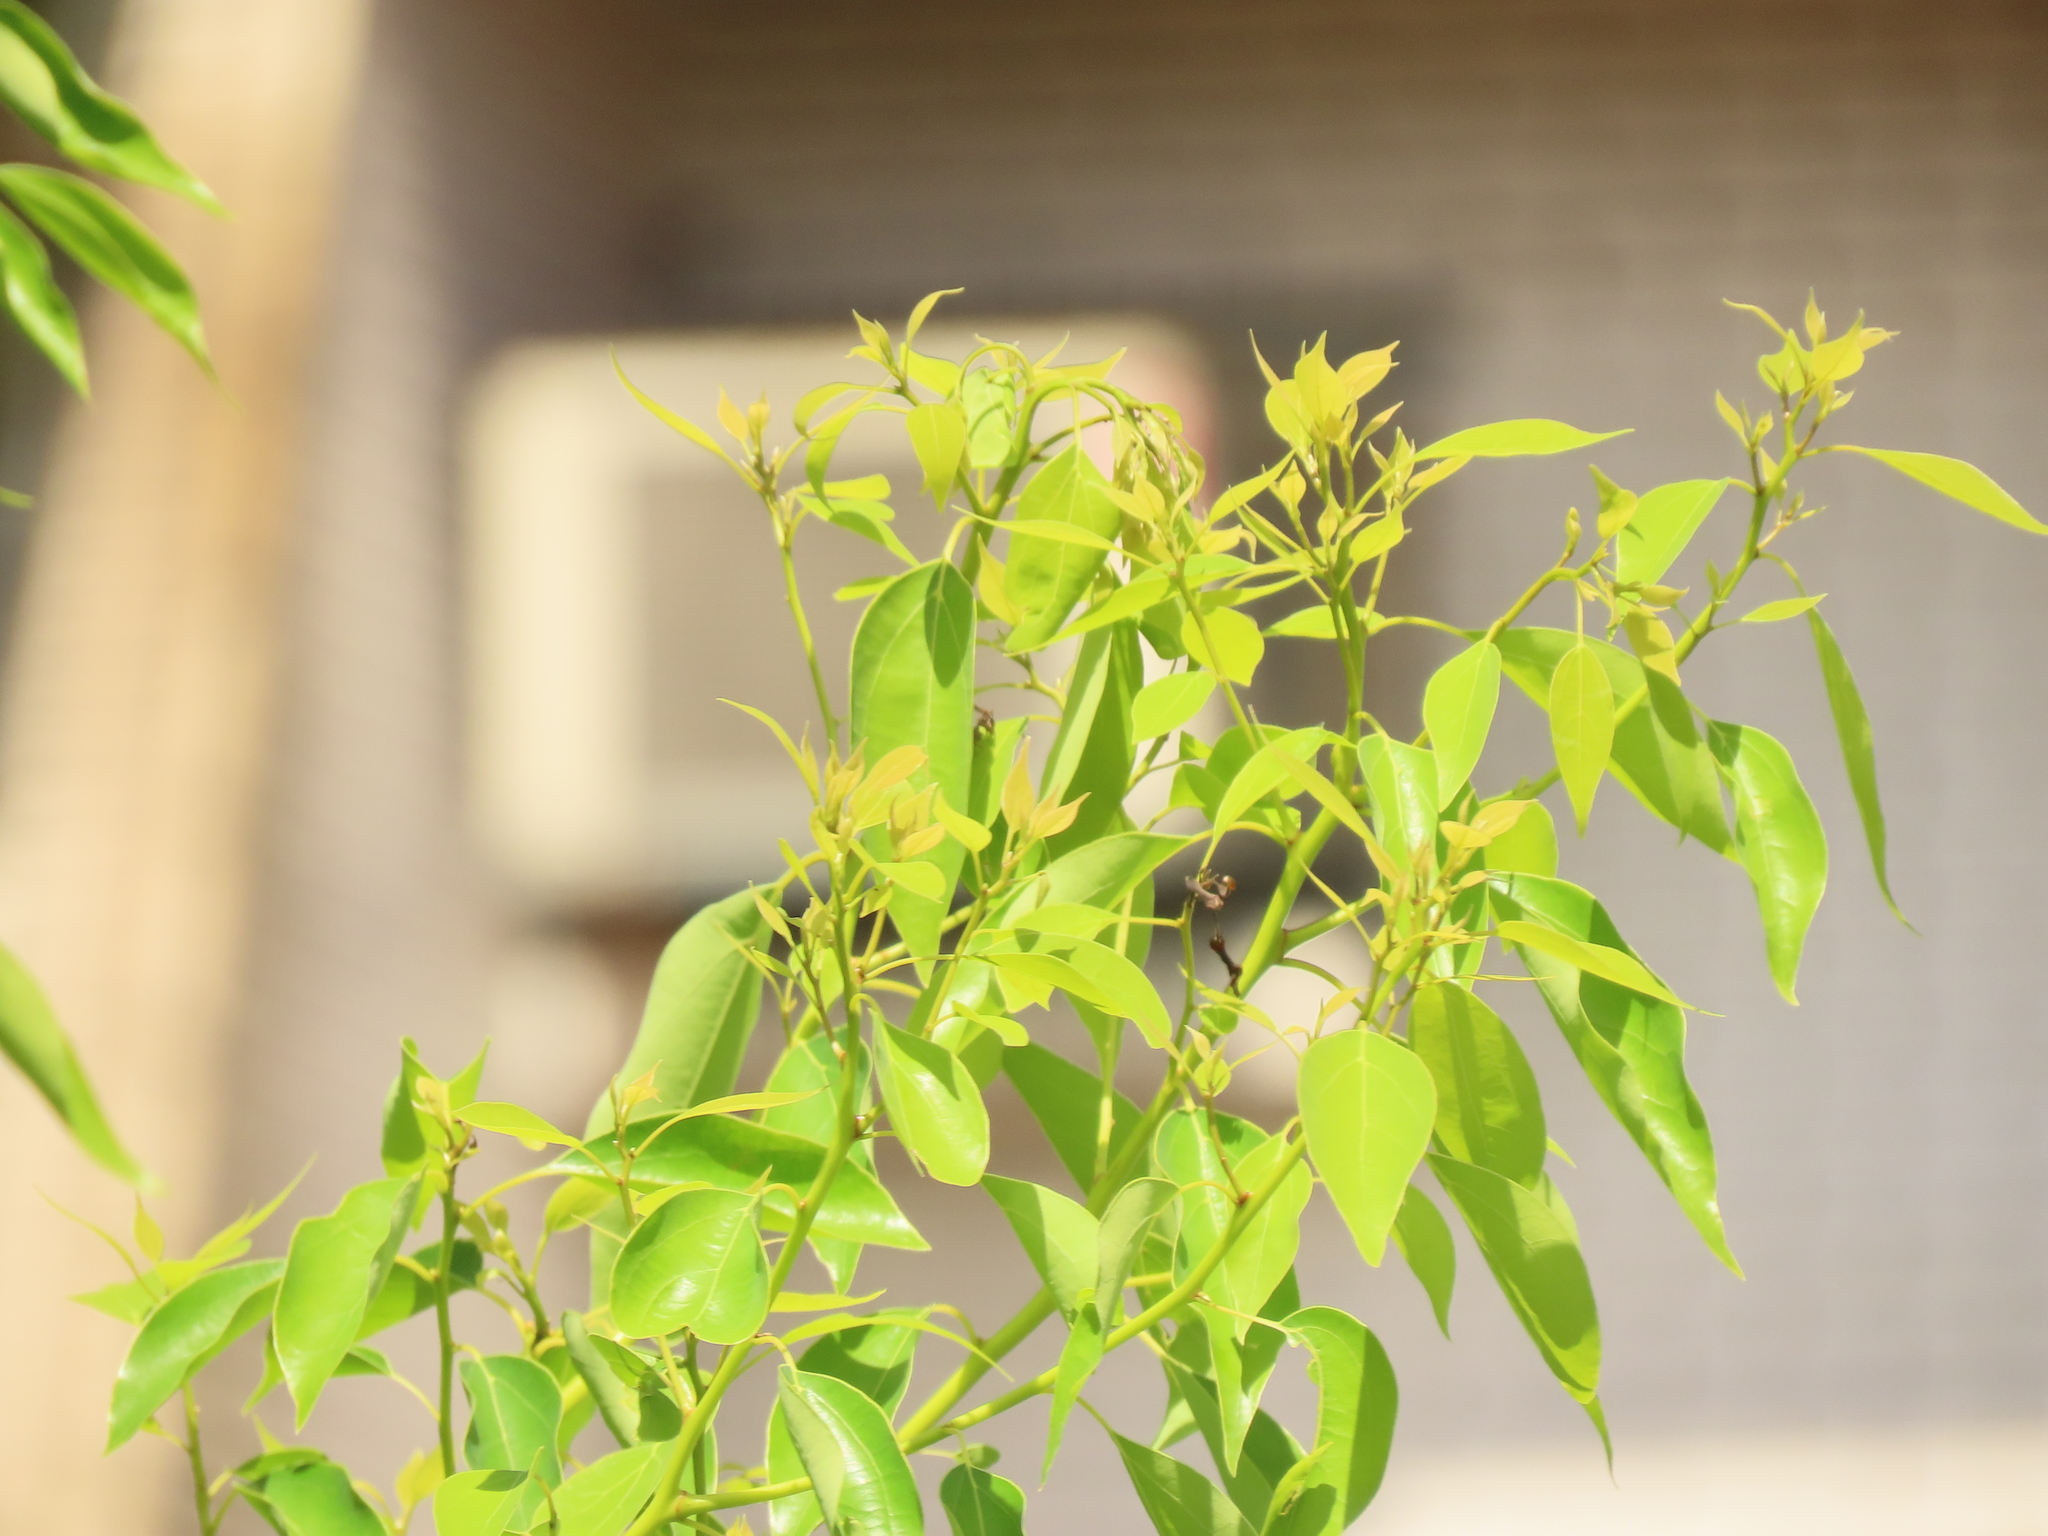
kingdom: Plantae
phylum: Tracheophyta
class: Magnoliopsida
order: Laurales
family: Lauraceae
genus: Cinnamomum
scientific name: Cinnamomum camphora
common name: Camphortree
